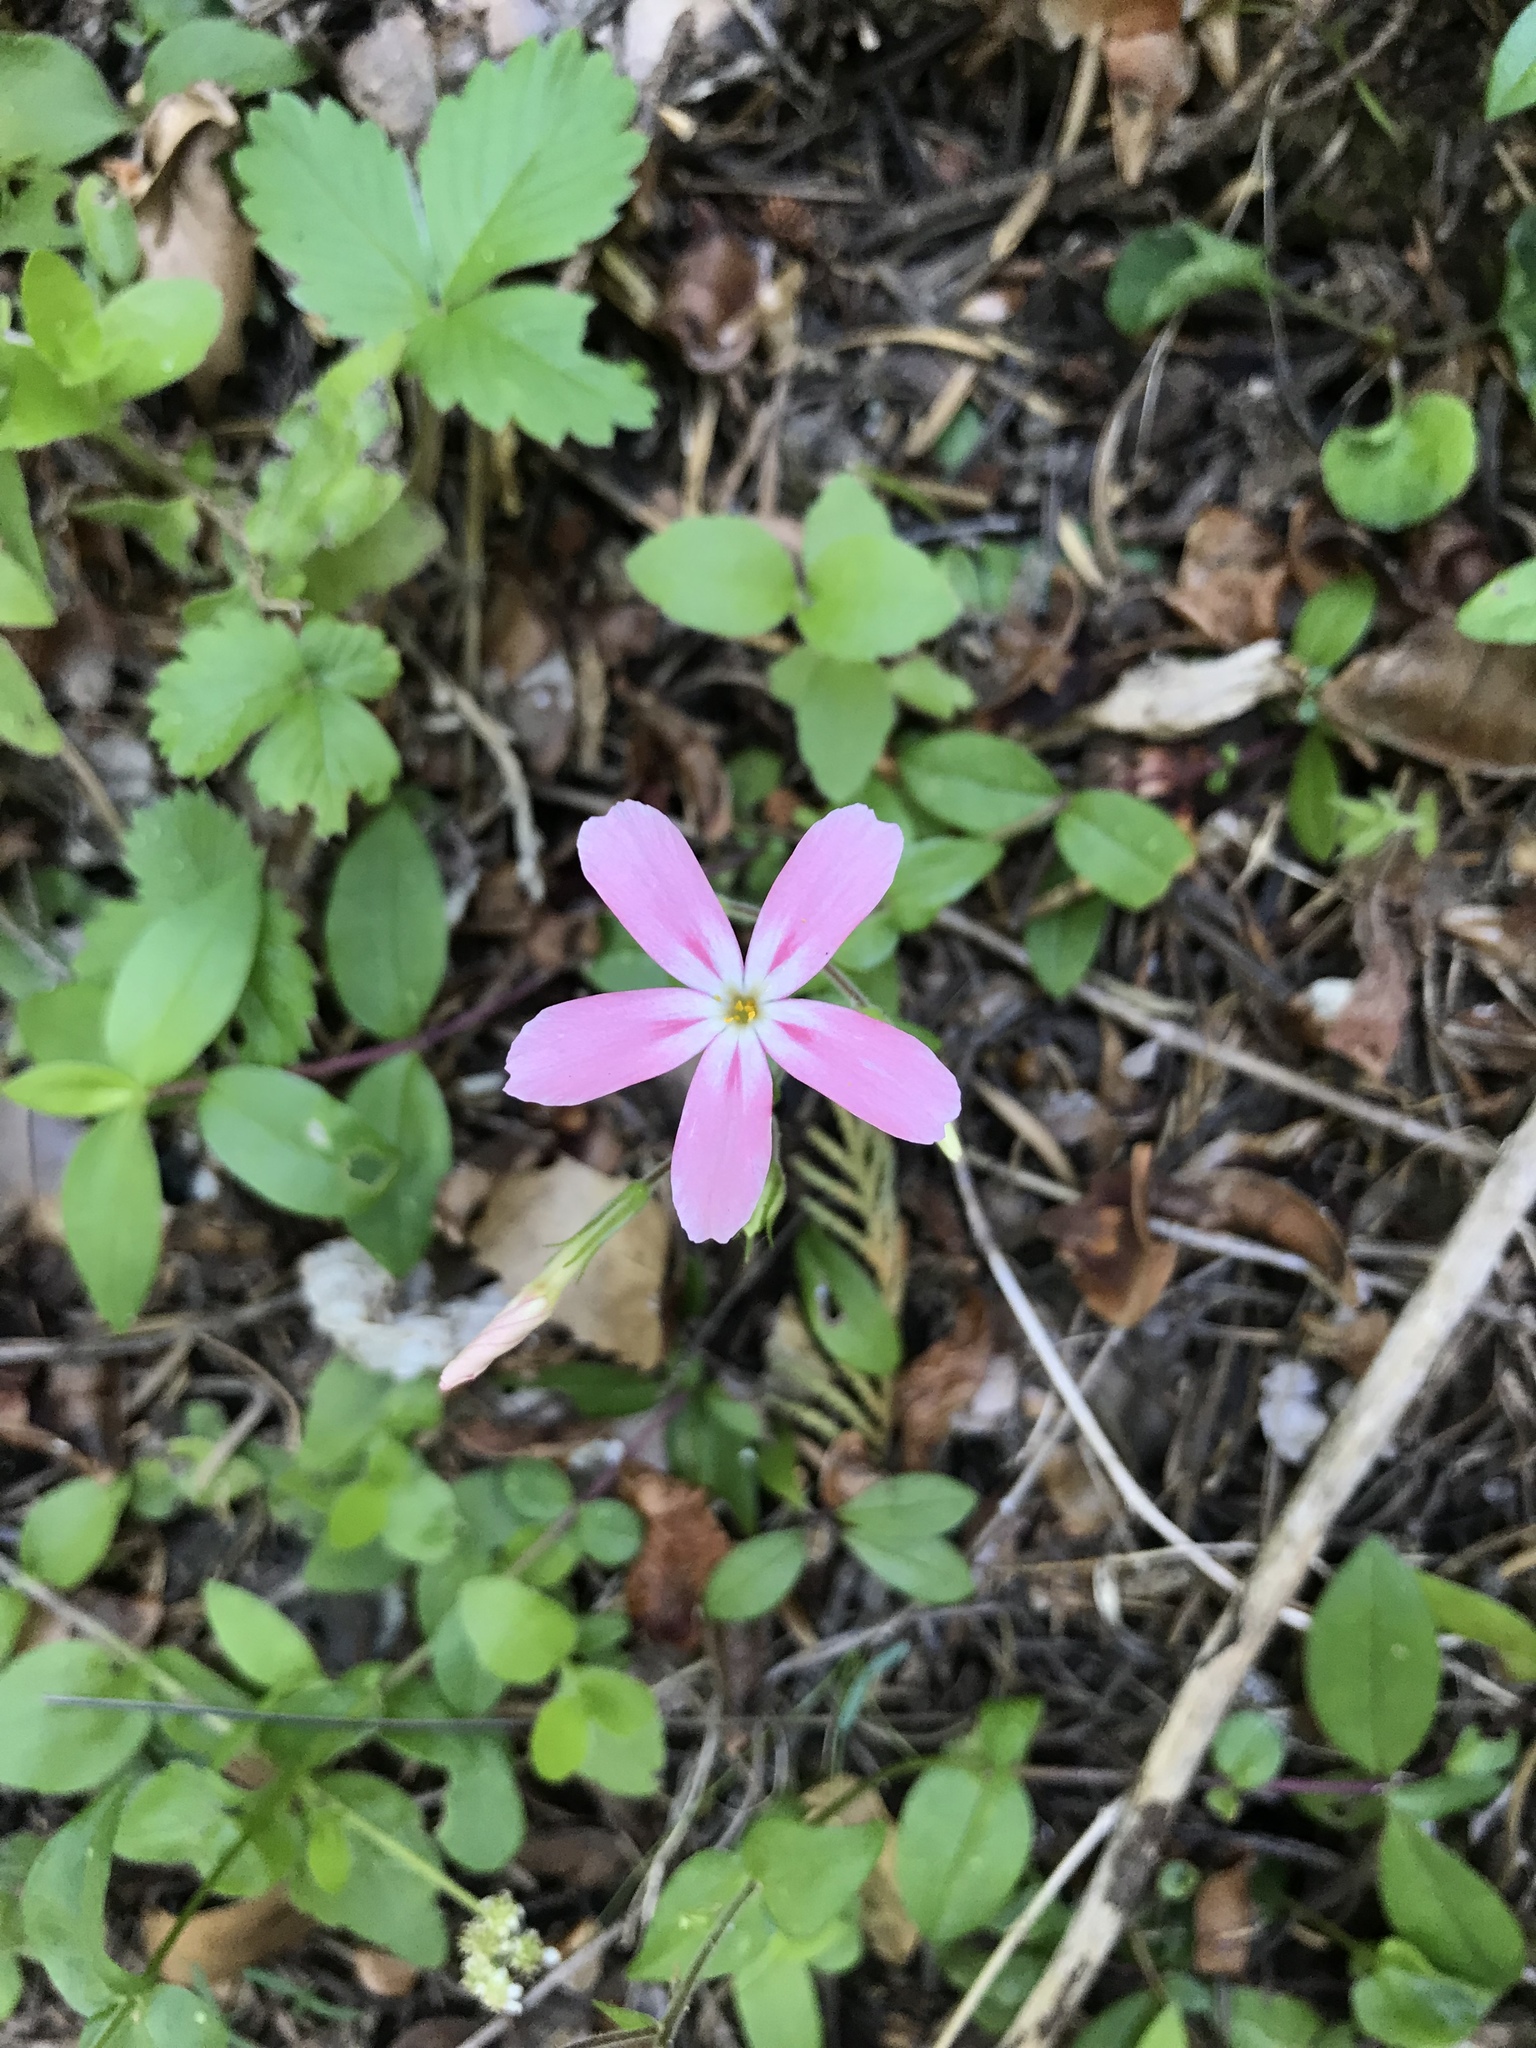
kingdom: Plantae
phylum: Tracheophyta
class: Magnoliopsida
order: Ericales
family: Polemoniaceae
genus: Phlox
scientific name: Phlox adsurgens
